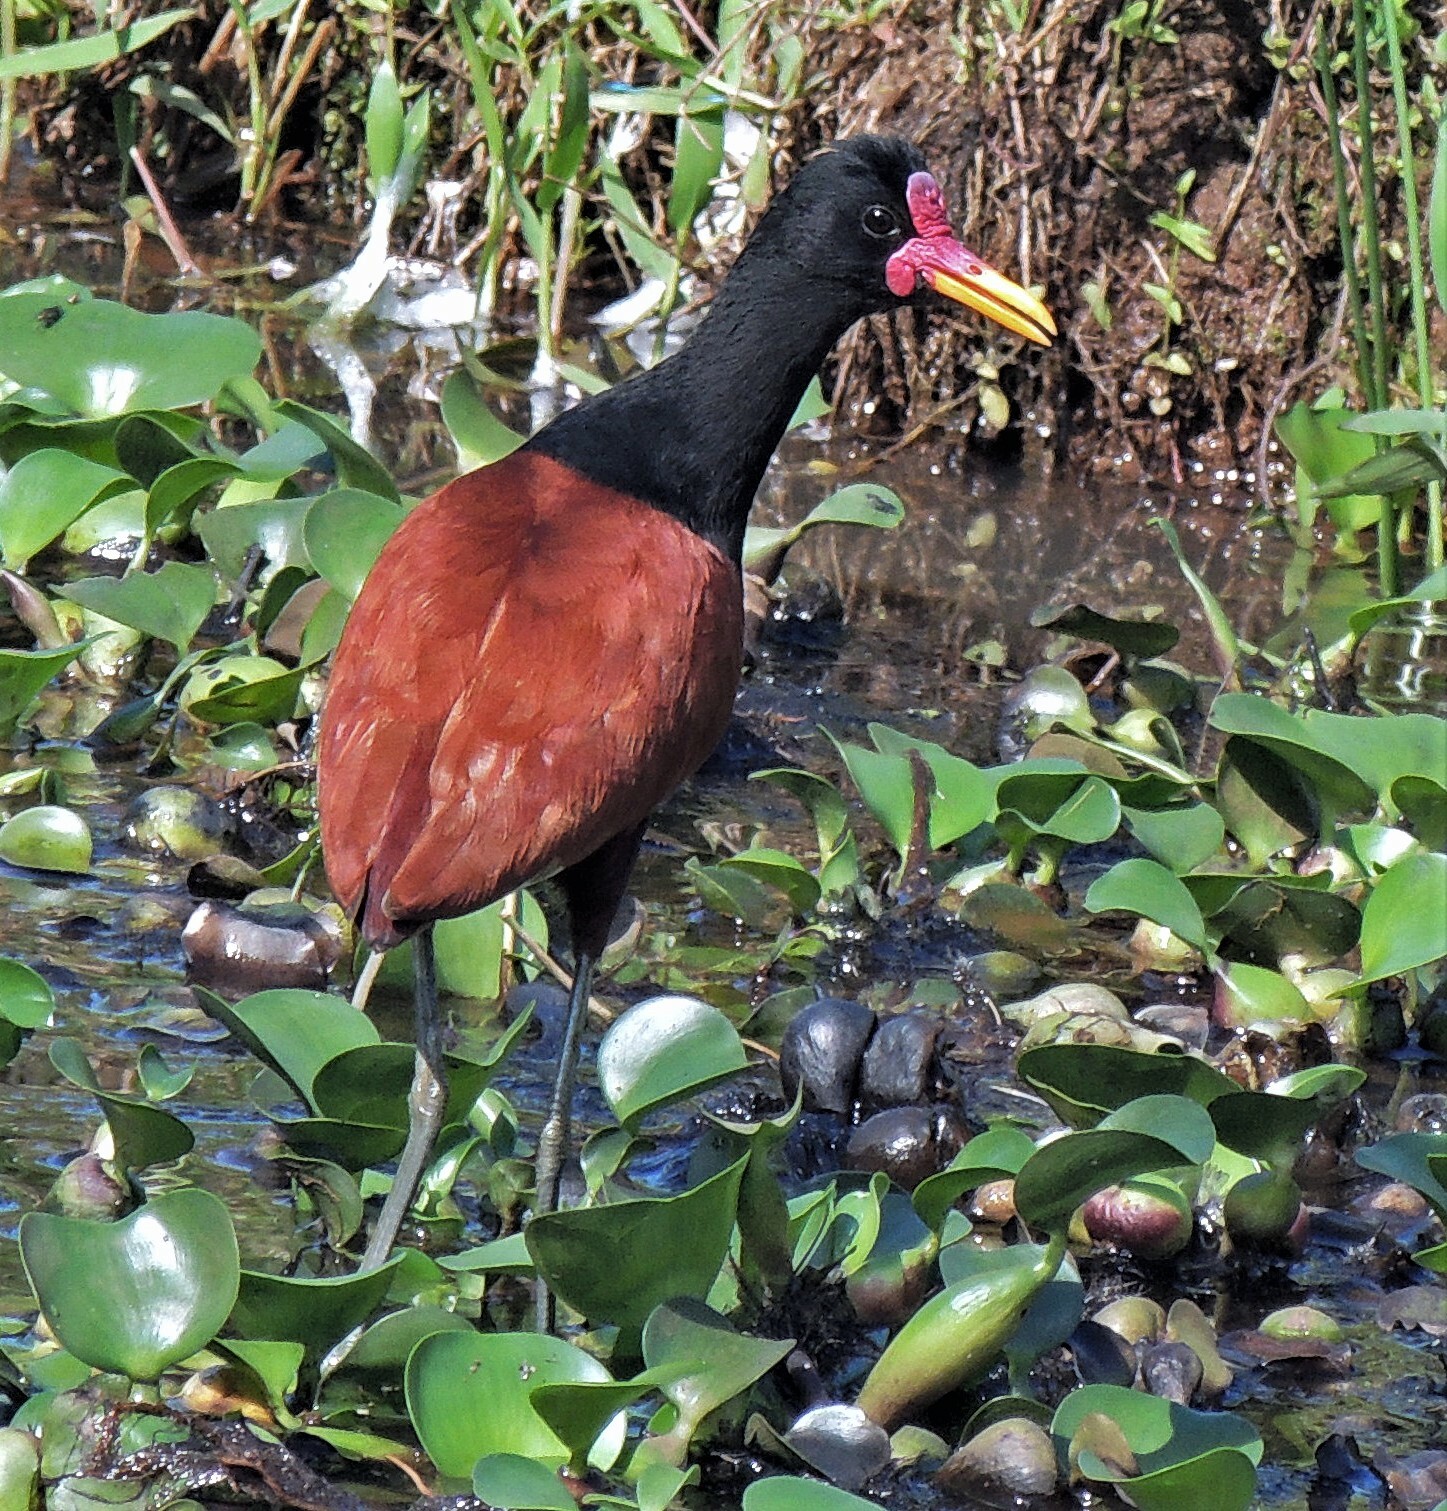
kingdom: Animalia
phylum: Chordata
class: Aves
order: Charadriiformes
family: Jacanidae
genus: Jacana
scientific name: Jacana jacana
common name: Wattled jacana
